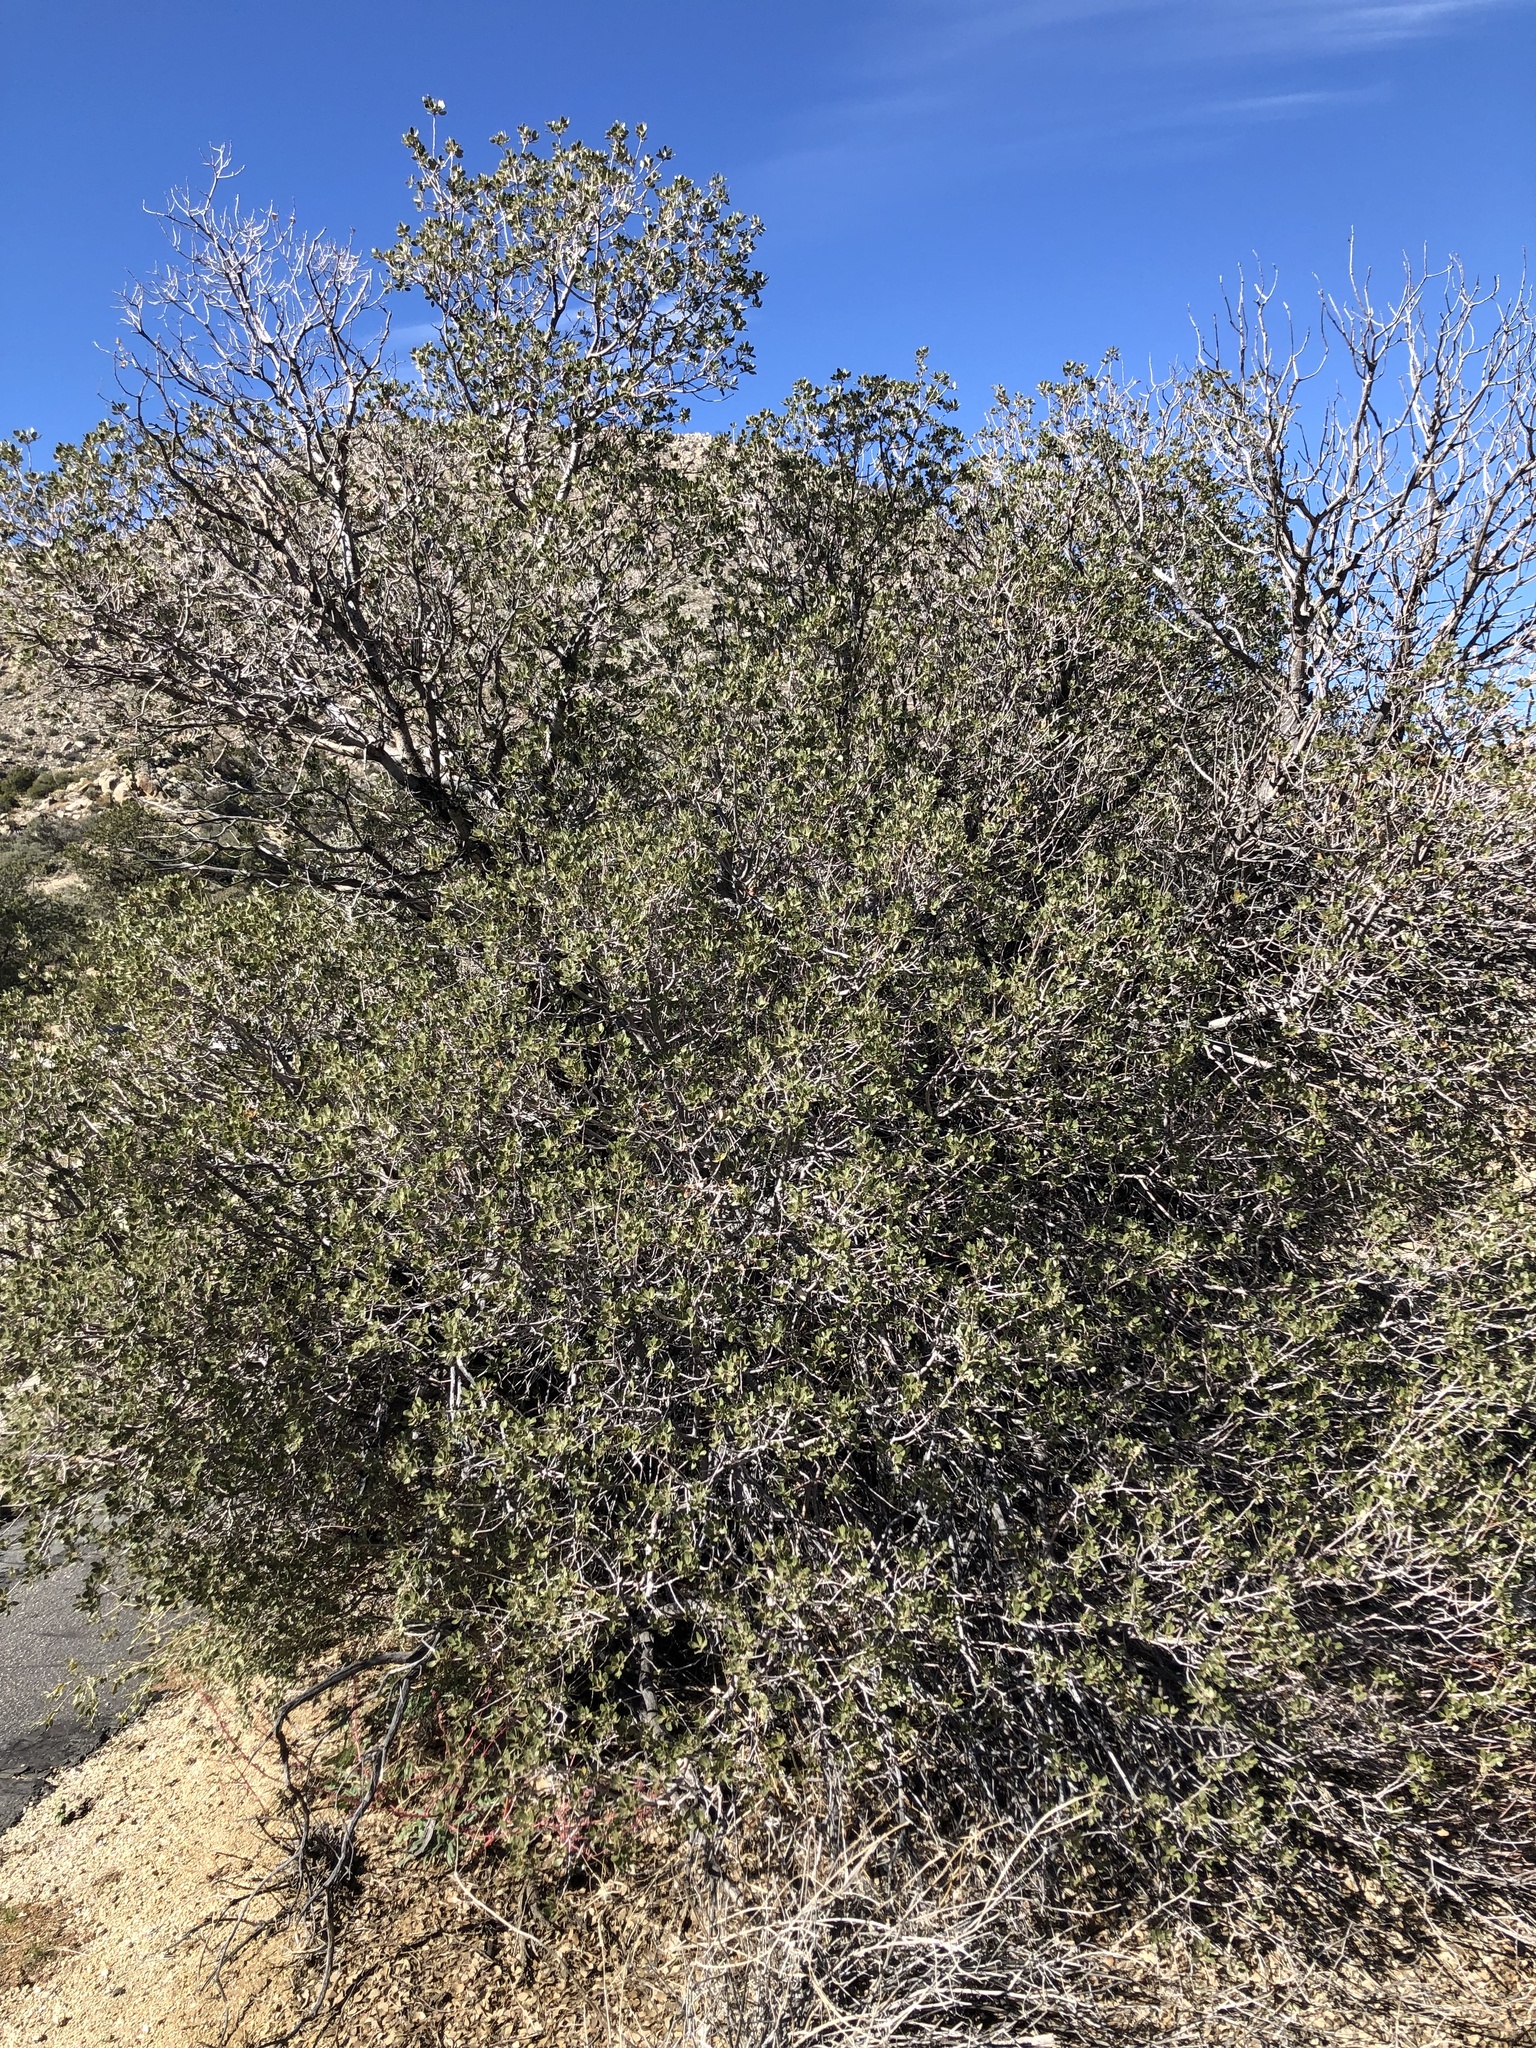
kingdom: Animalia
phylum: Arthropoda
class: Insecta
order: Hymenoptera
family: Cynipidae
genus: Andricus
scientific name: Andricus quercuscalifornicus
